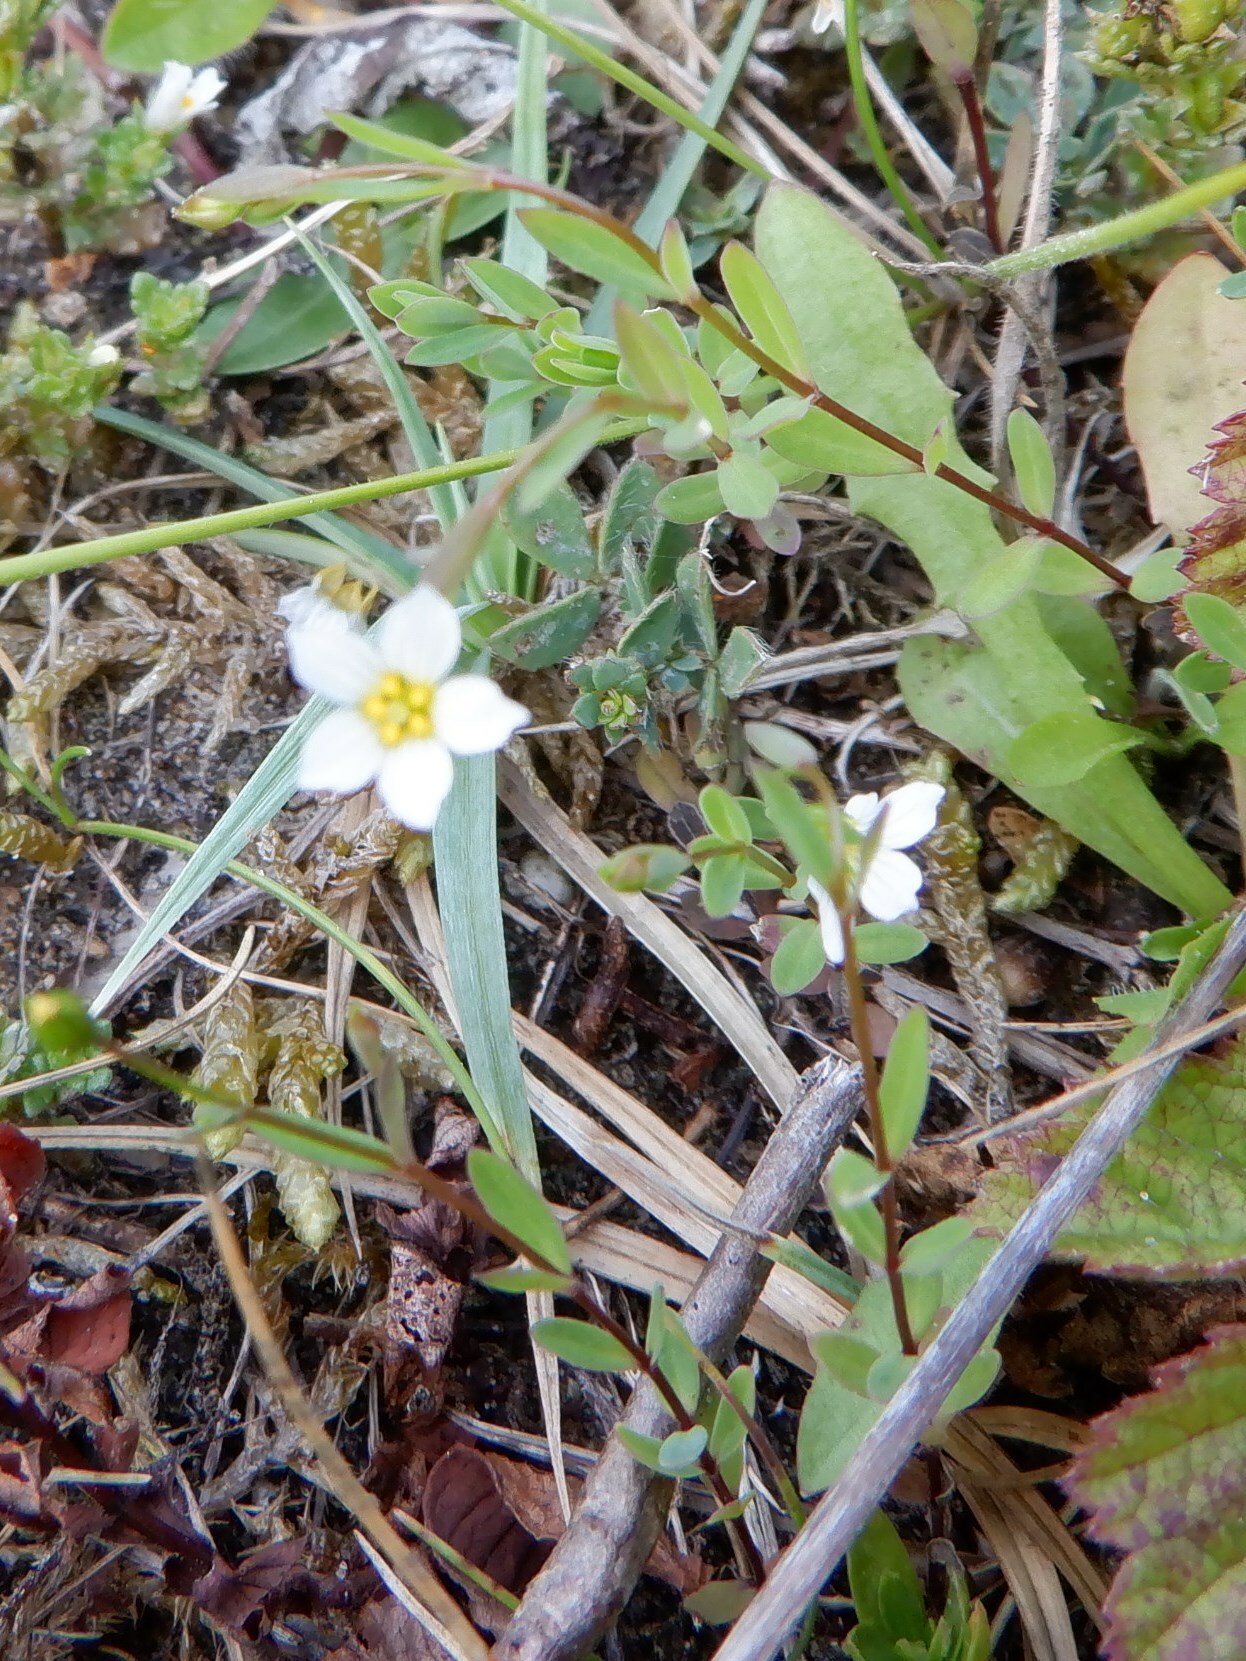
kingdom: Plantae
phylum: Tracheophyta
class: Magnoliopsida
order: Malpighiales
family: Linaceae
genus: Linum
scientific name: Linum catharticum
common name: Fairy flax
